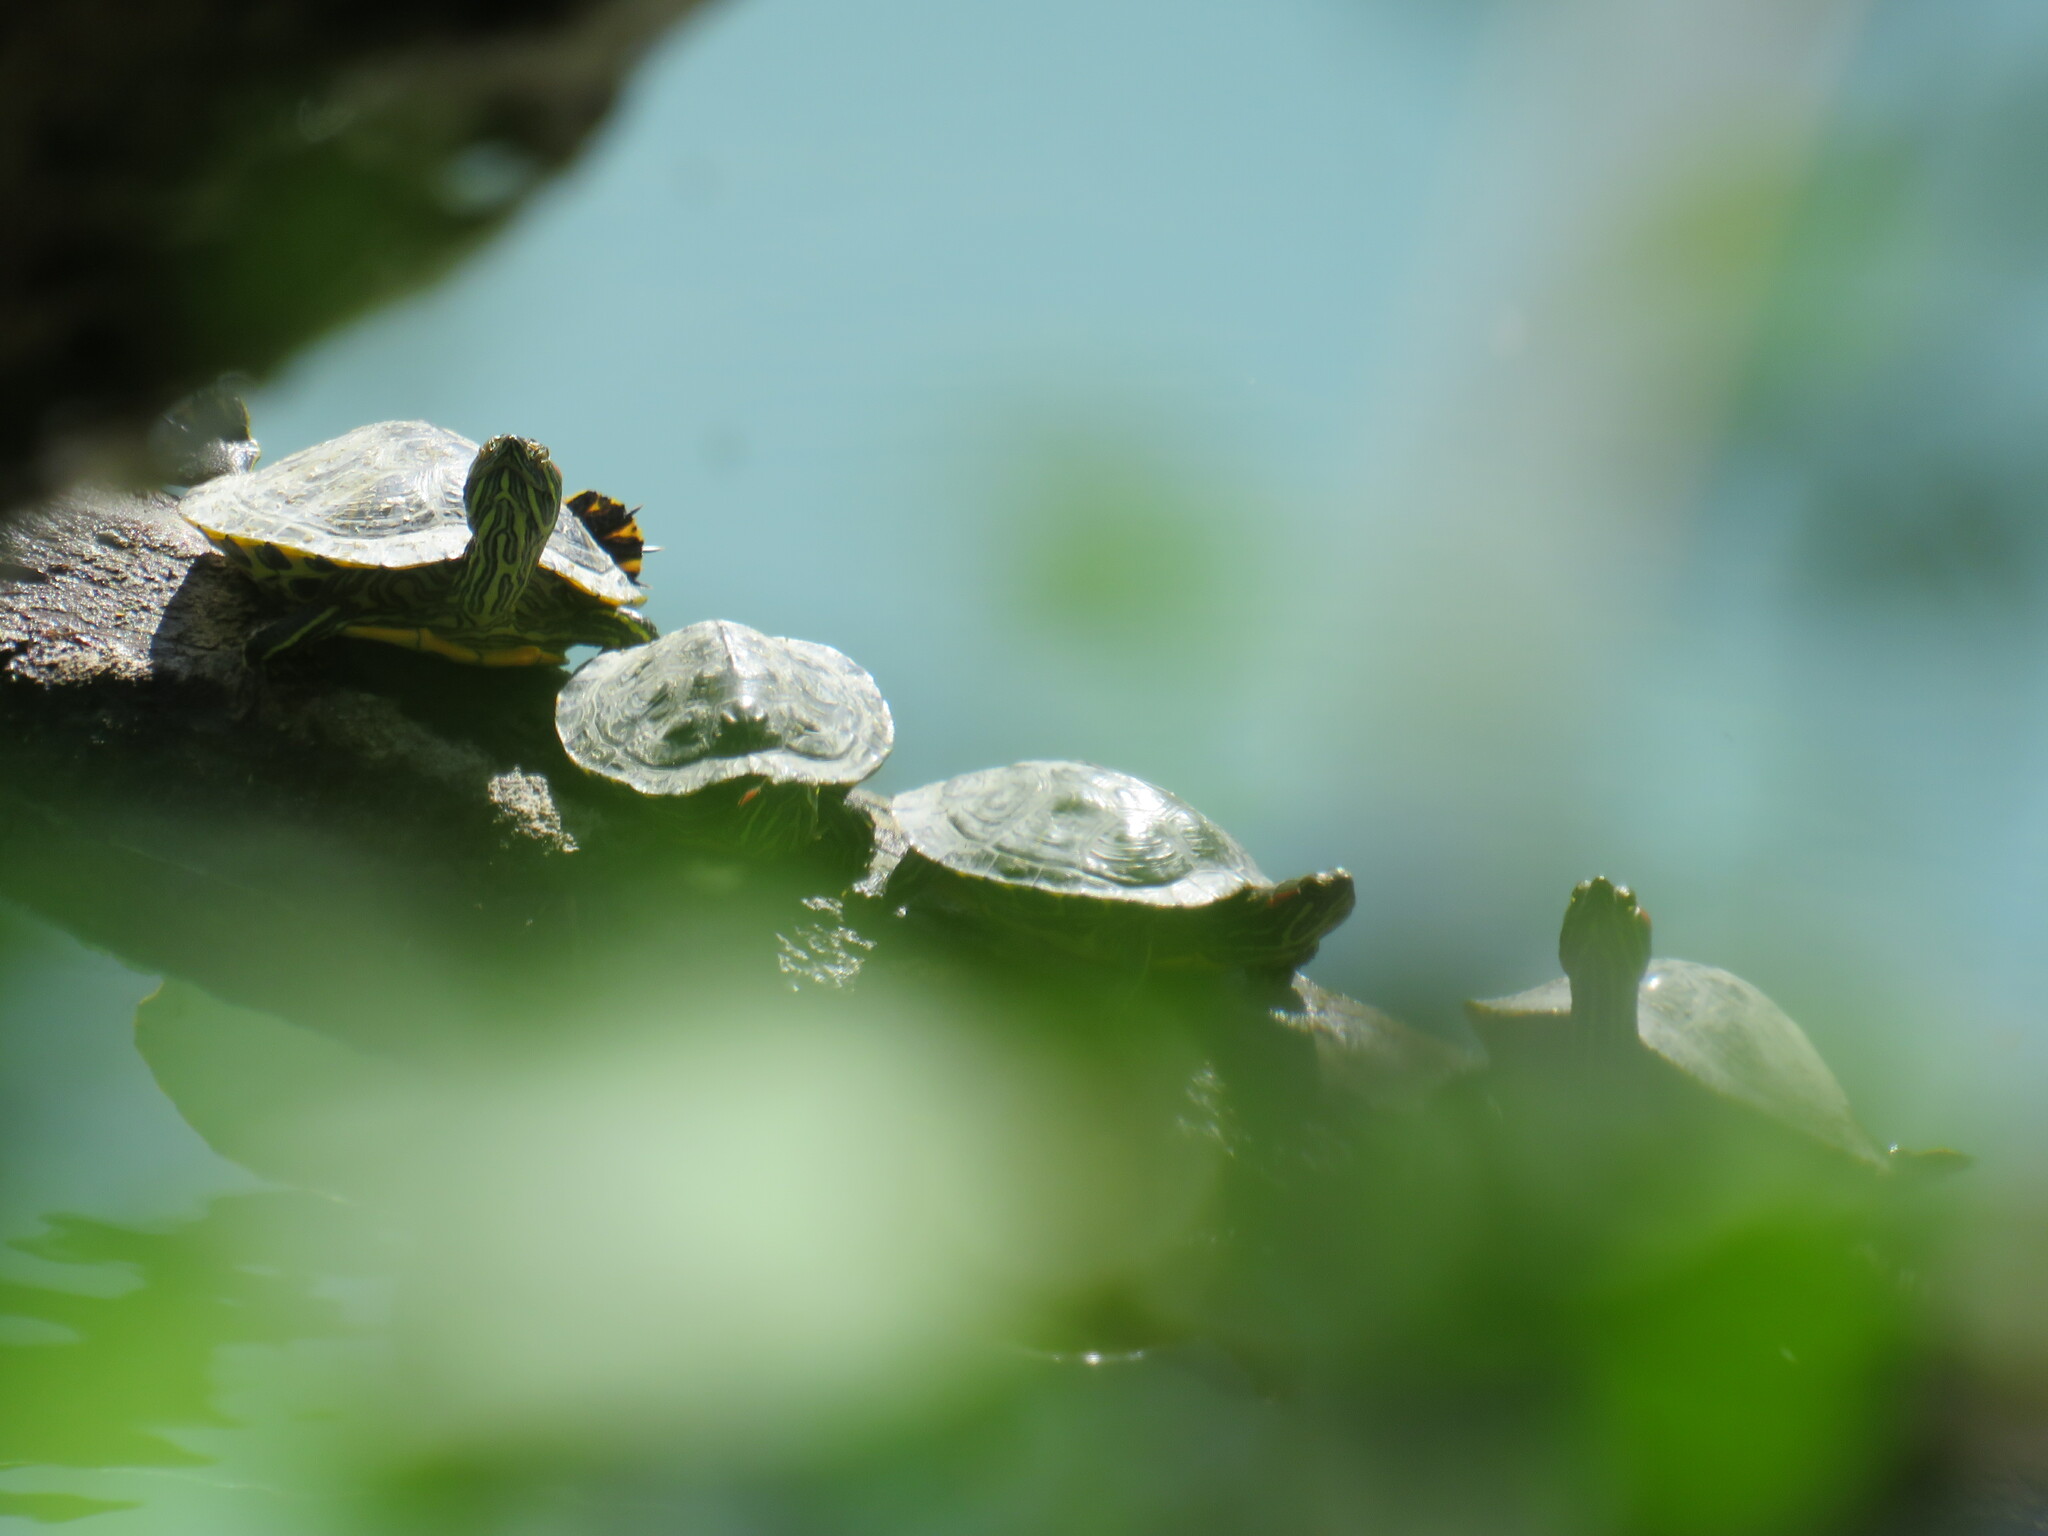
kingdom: Animalia
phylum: Chordata
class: Testudines
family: Emydidae
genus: Trachemys
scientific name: Trachemys scripta
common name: Slider
